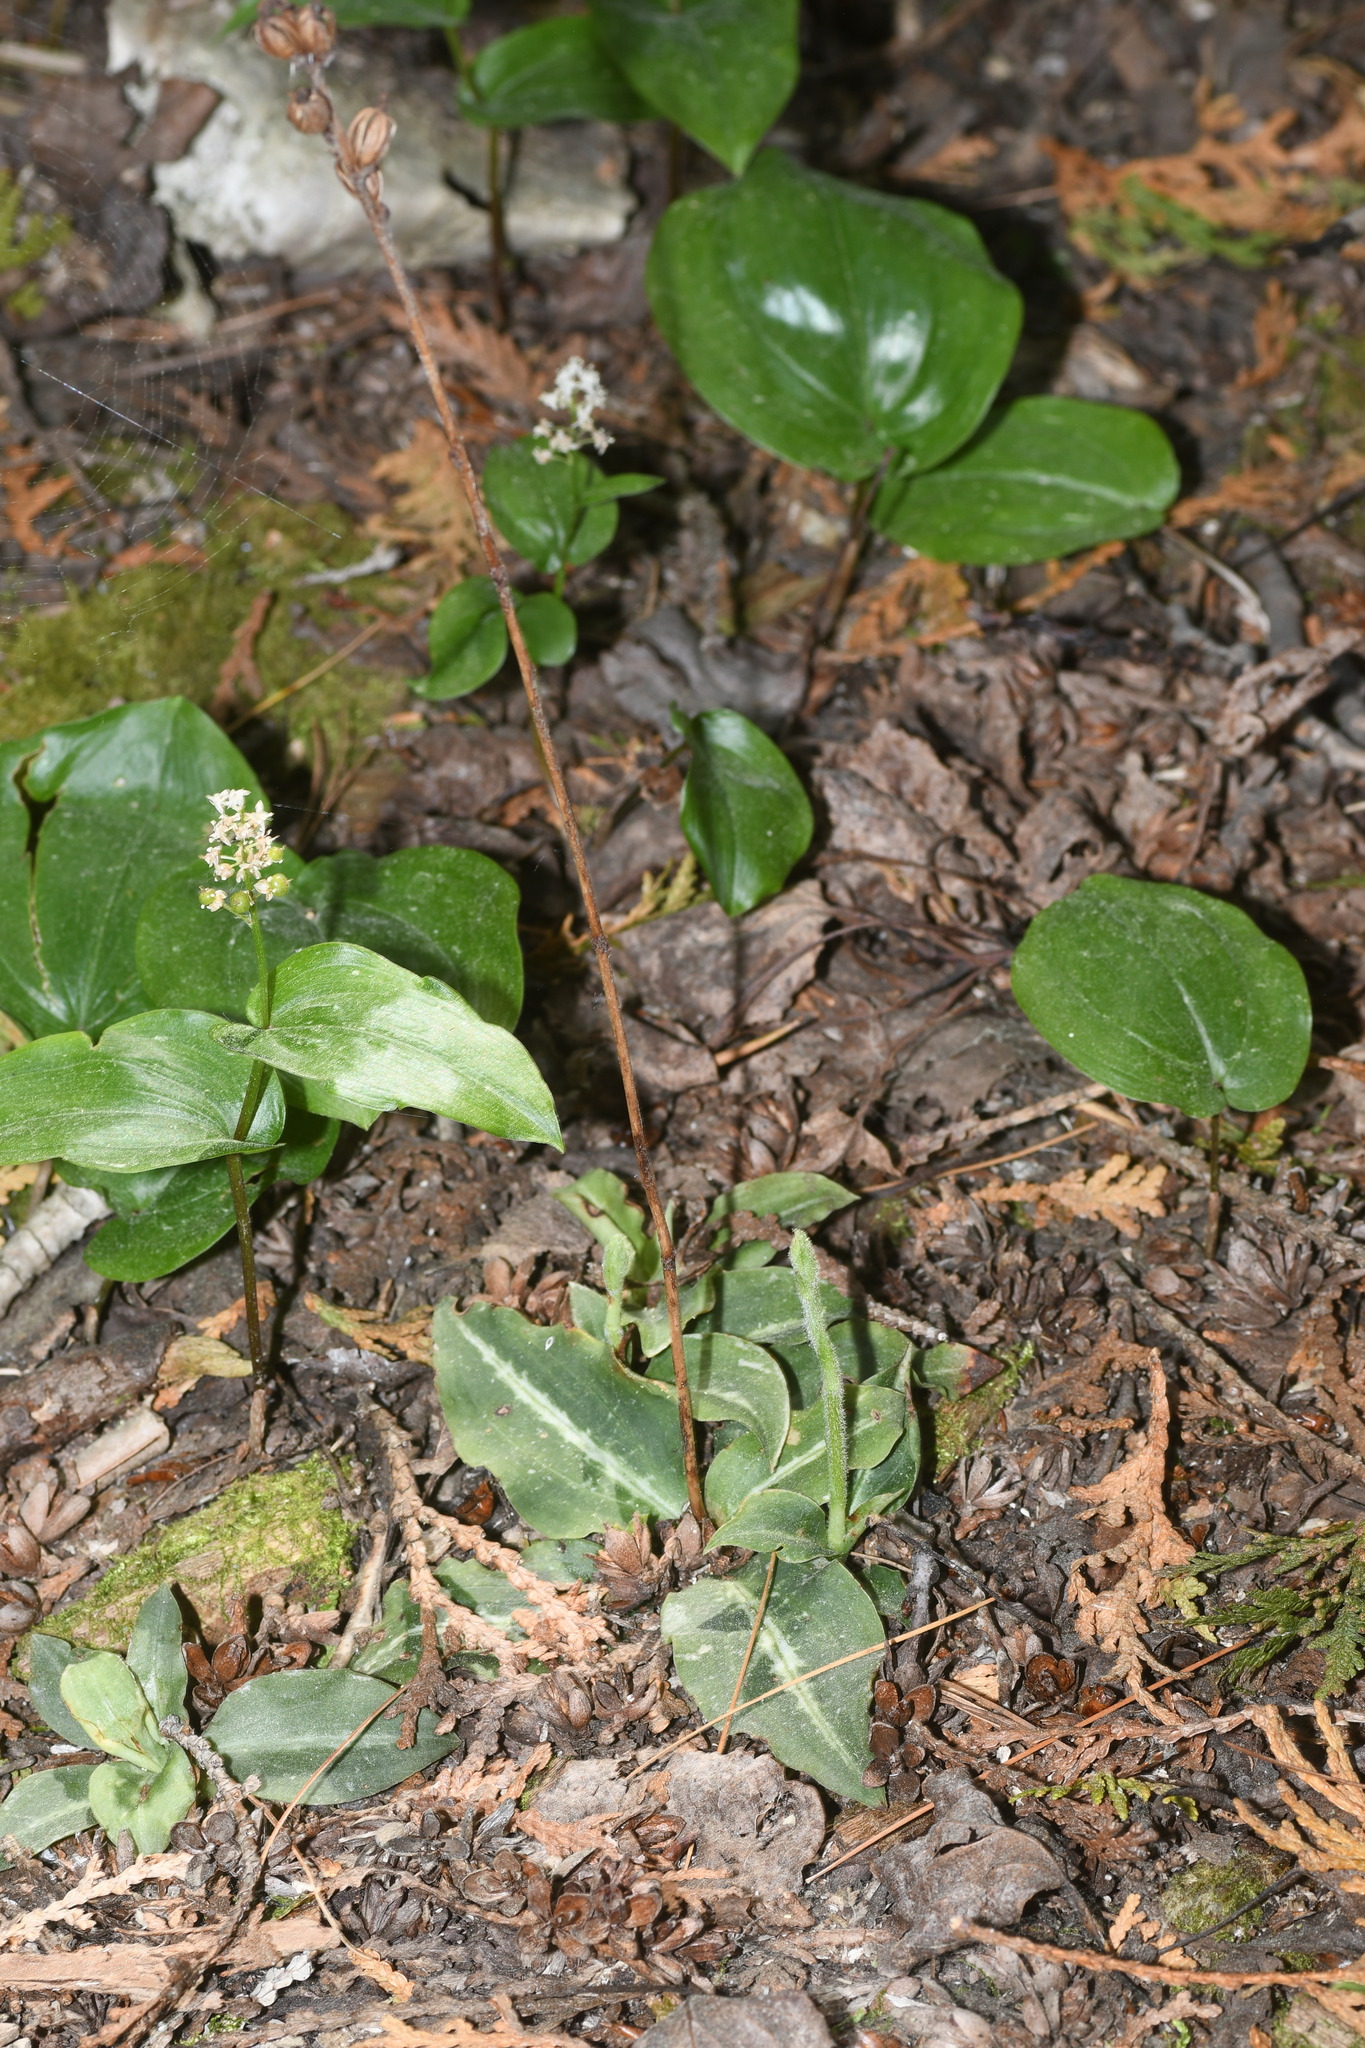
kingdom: Plantae
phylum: Tracheophyta
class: Liliopsida
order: Asparagales
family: Orchidaceae
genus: Goodyera
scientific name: Goodyera oblongifolia
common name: Giant rattlesnake-plantain
